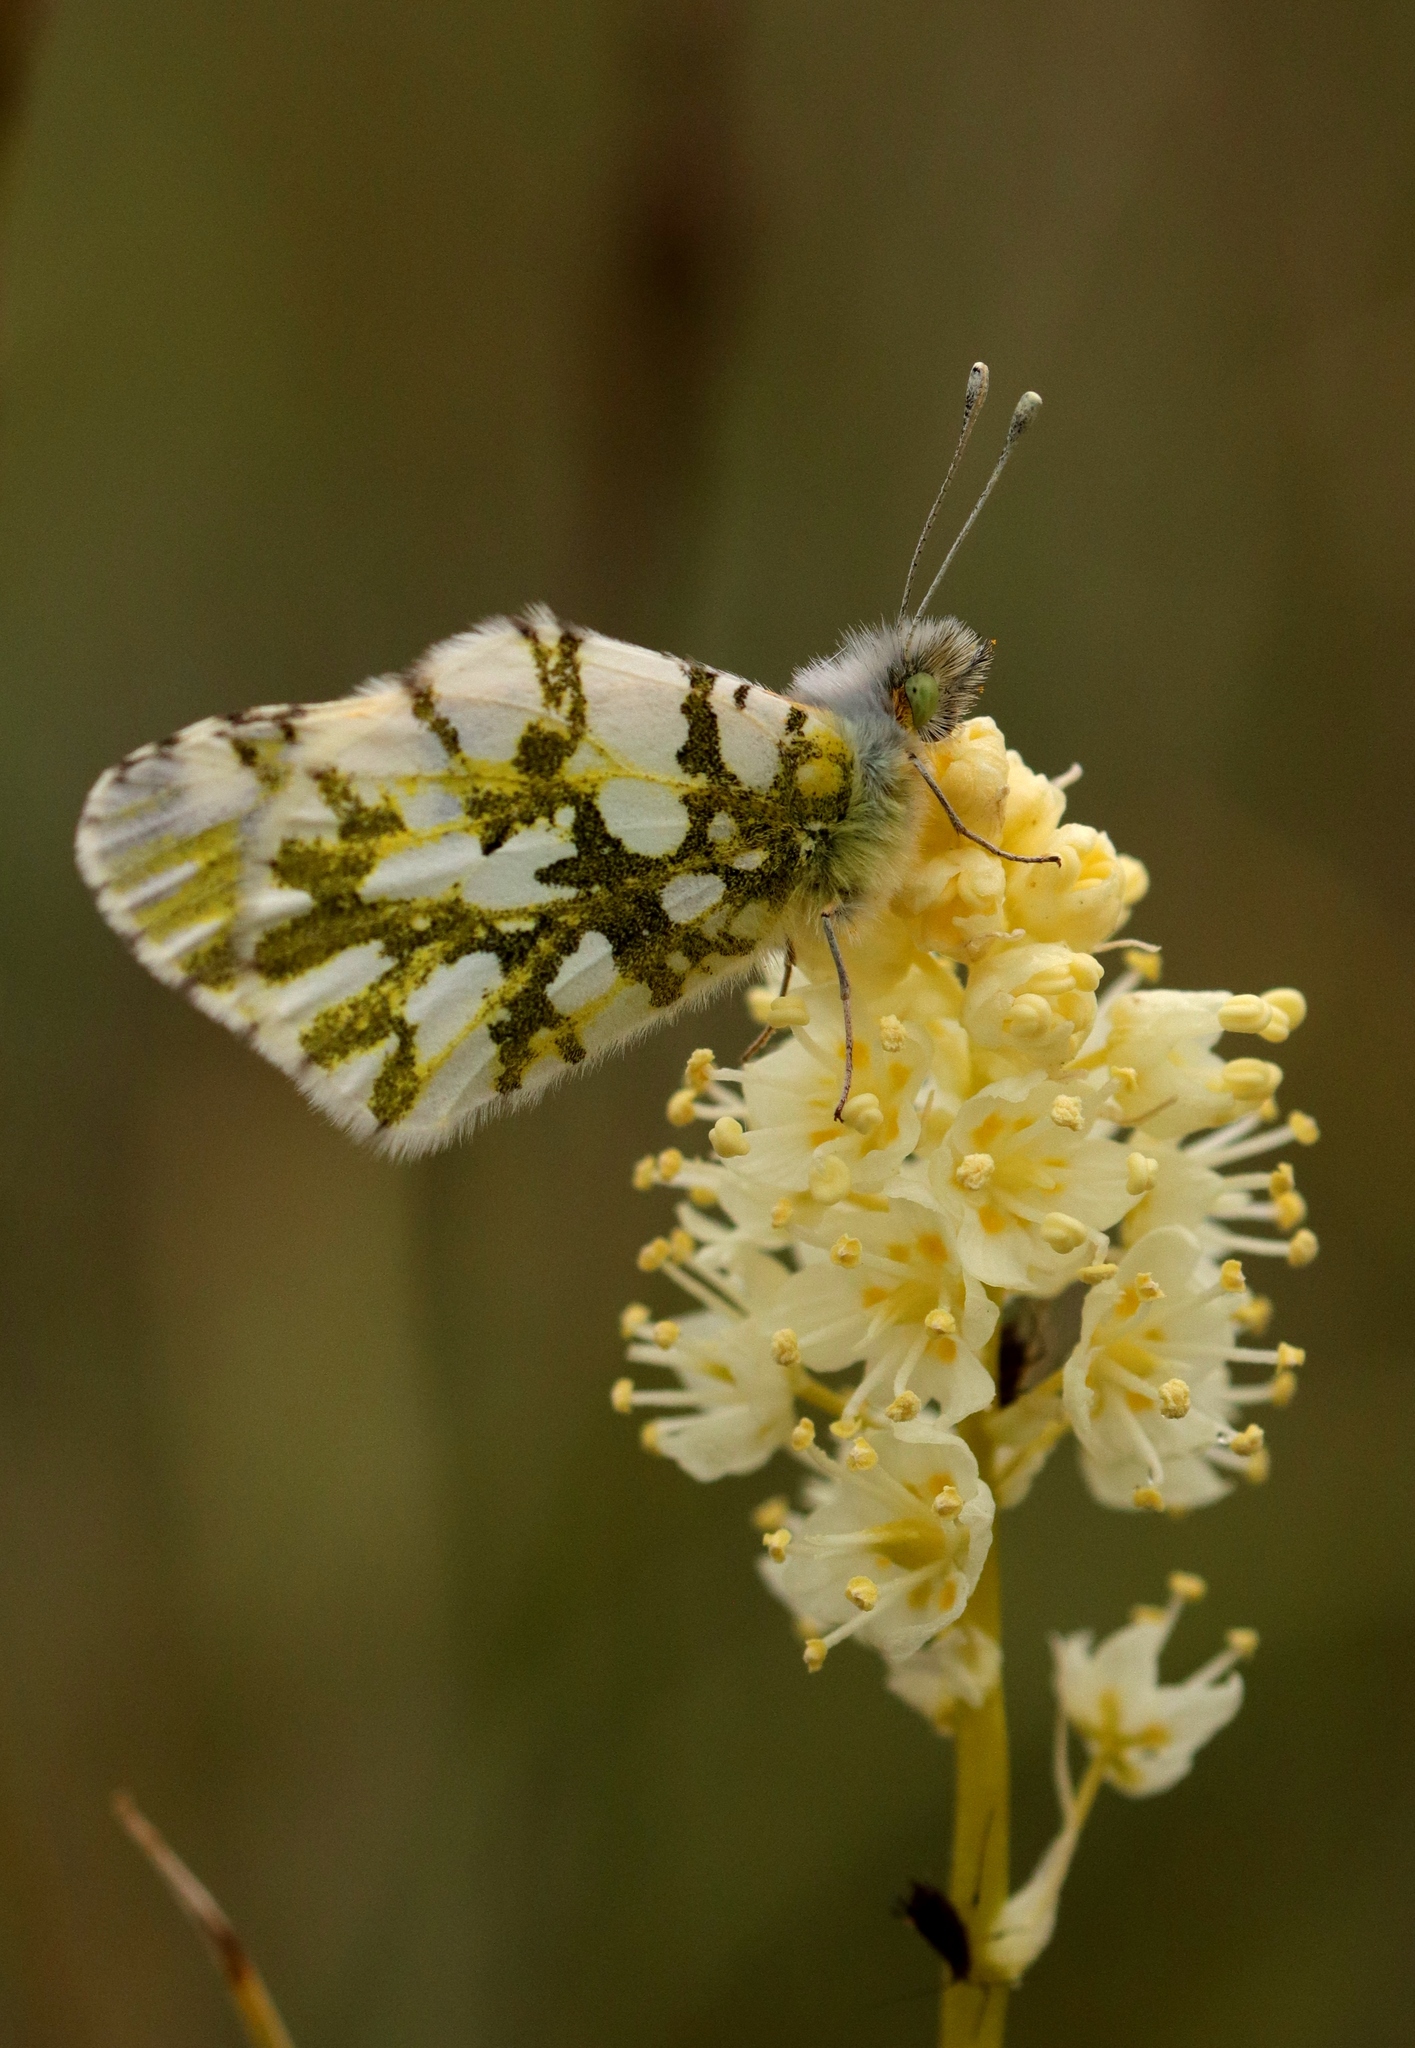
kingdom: Animalia
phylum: Arthropoda
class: Insecta
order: Lepidoptera
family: Pieridae
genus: Euchloe
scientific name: Euchloe ausonides
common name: Creamy marblewing
